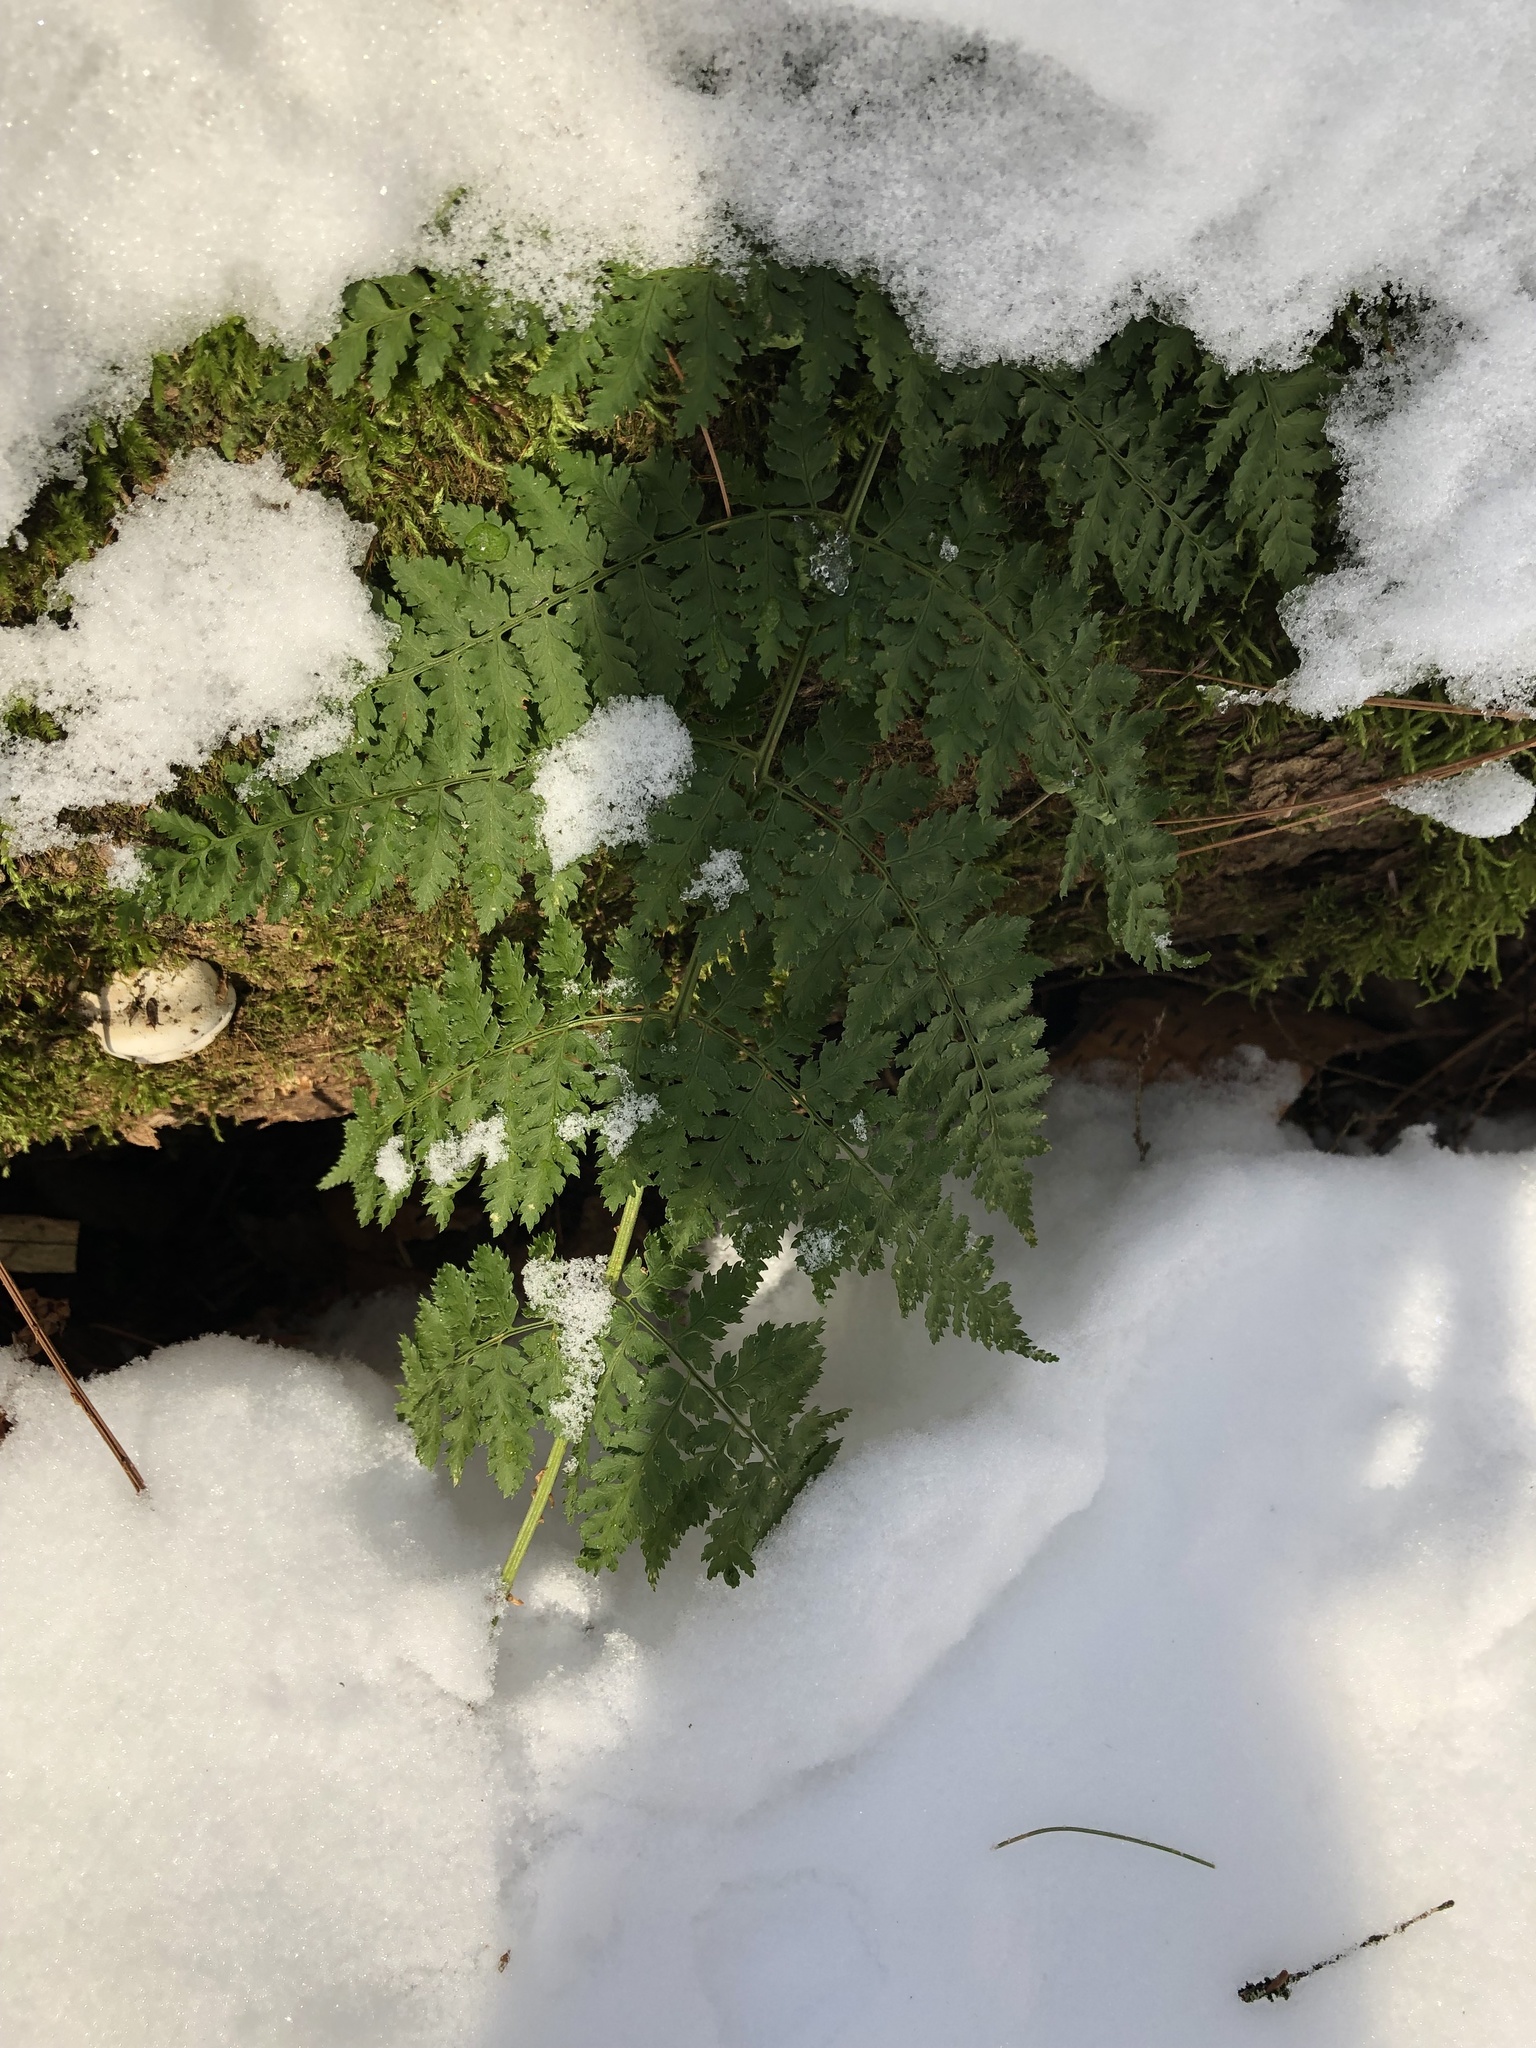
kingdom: Plantae
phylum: Tracheophyta
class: Polypodiopsida
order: Polypodiales
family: Dryopteridaceae
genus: Dryopteris
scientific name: Dryopteris intermedia
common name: Evergreen wood fern
